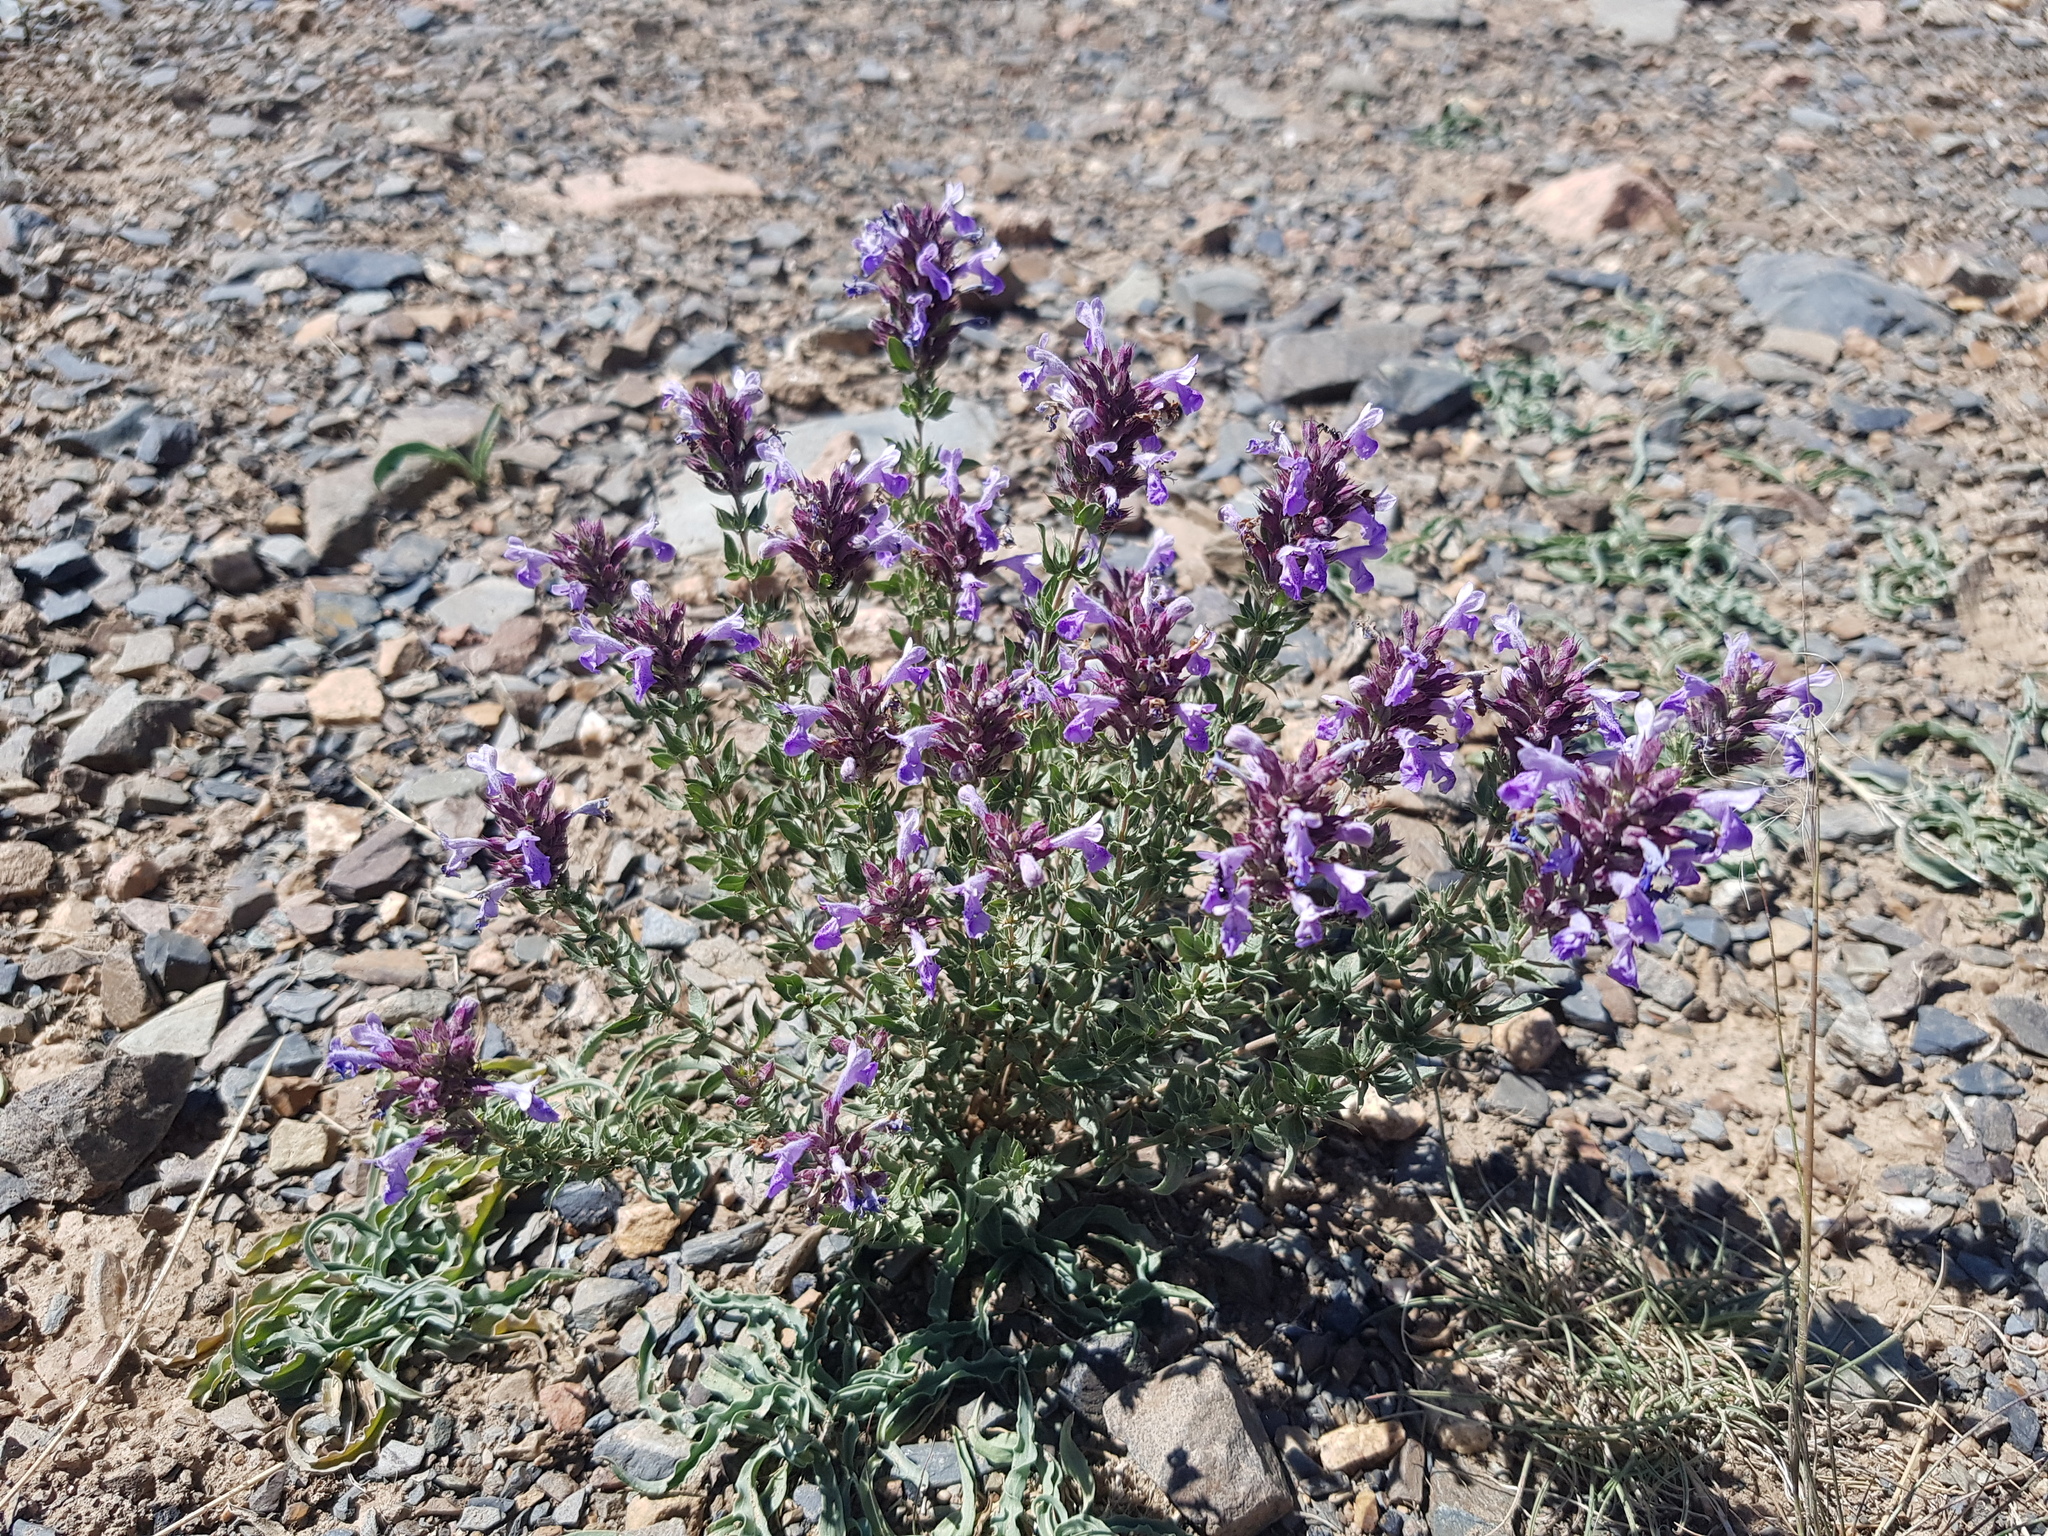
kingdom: Plantae
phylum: Tracheophyta
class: Magnoliopsida
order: Lamiales
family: Lamiaceae
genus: Dracocephalum
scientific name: Dracocephalum fruticulosum
